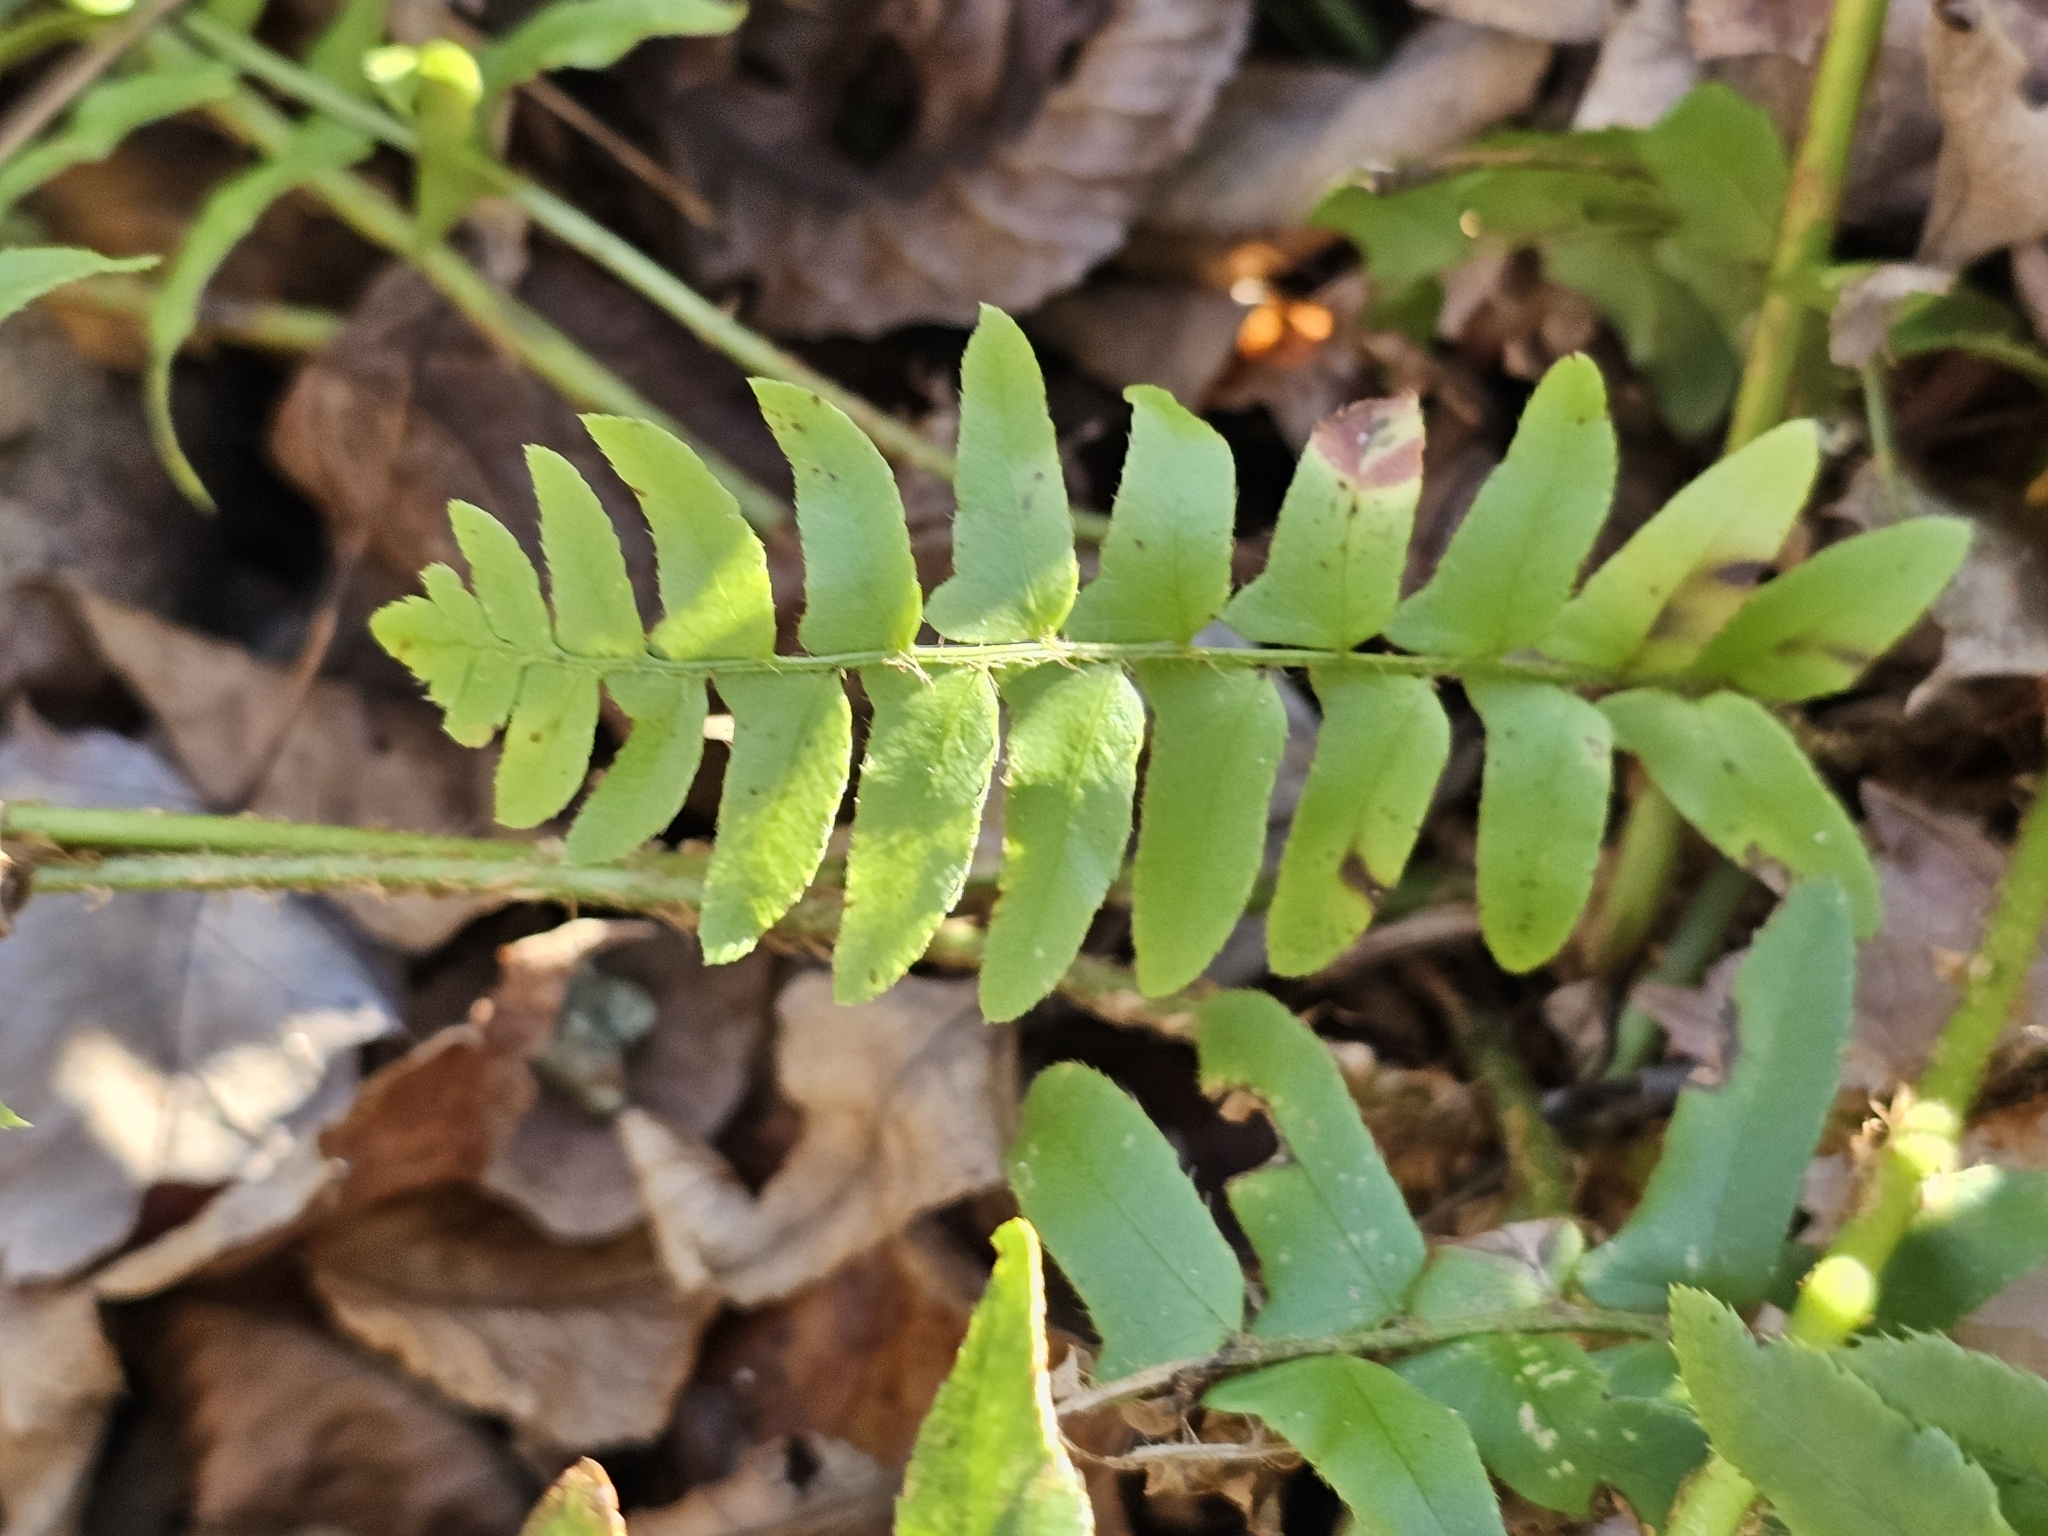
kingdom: Plantae
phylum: Tracheophyta
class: Polypodiopsida
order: Polypodiales
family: Dryopteridaceae
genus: Polystichum
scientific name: Polystichum acrostichoides
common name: Christmas fern
